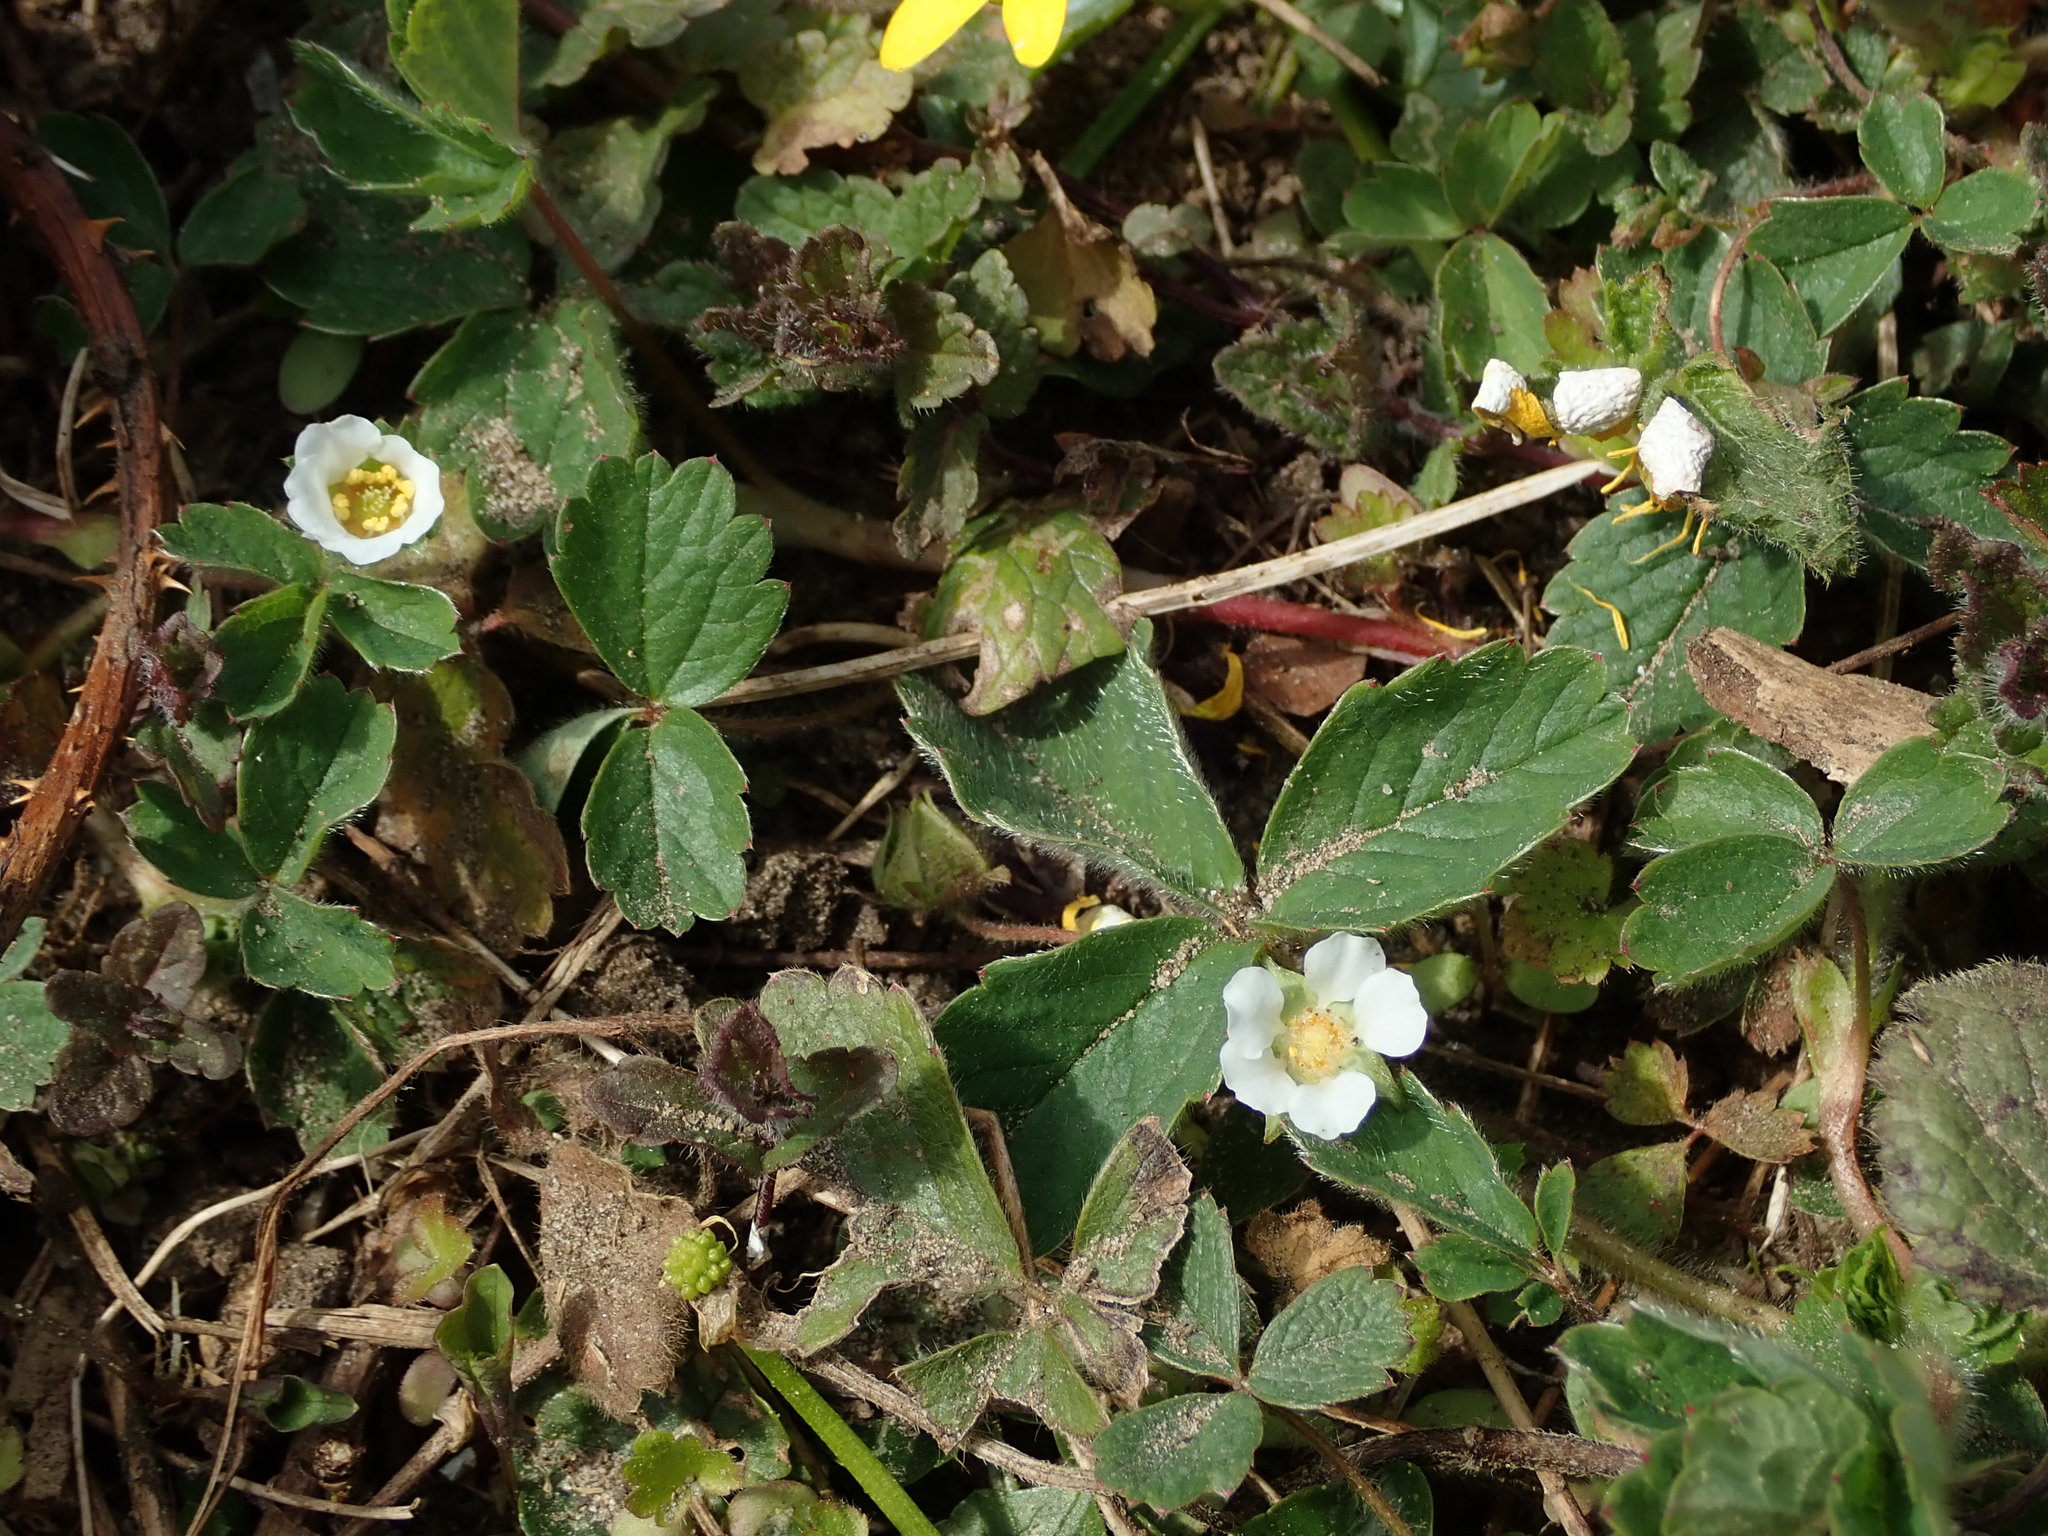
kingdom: Plantae
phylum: Tracheophyta
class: Magnoliopsida
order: Rosales
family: Rosaceae
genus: Potentilla
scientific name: Potentilla sterilis
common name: Barren strawberry
